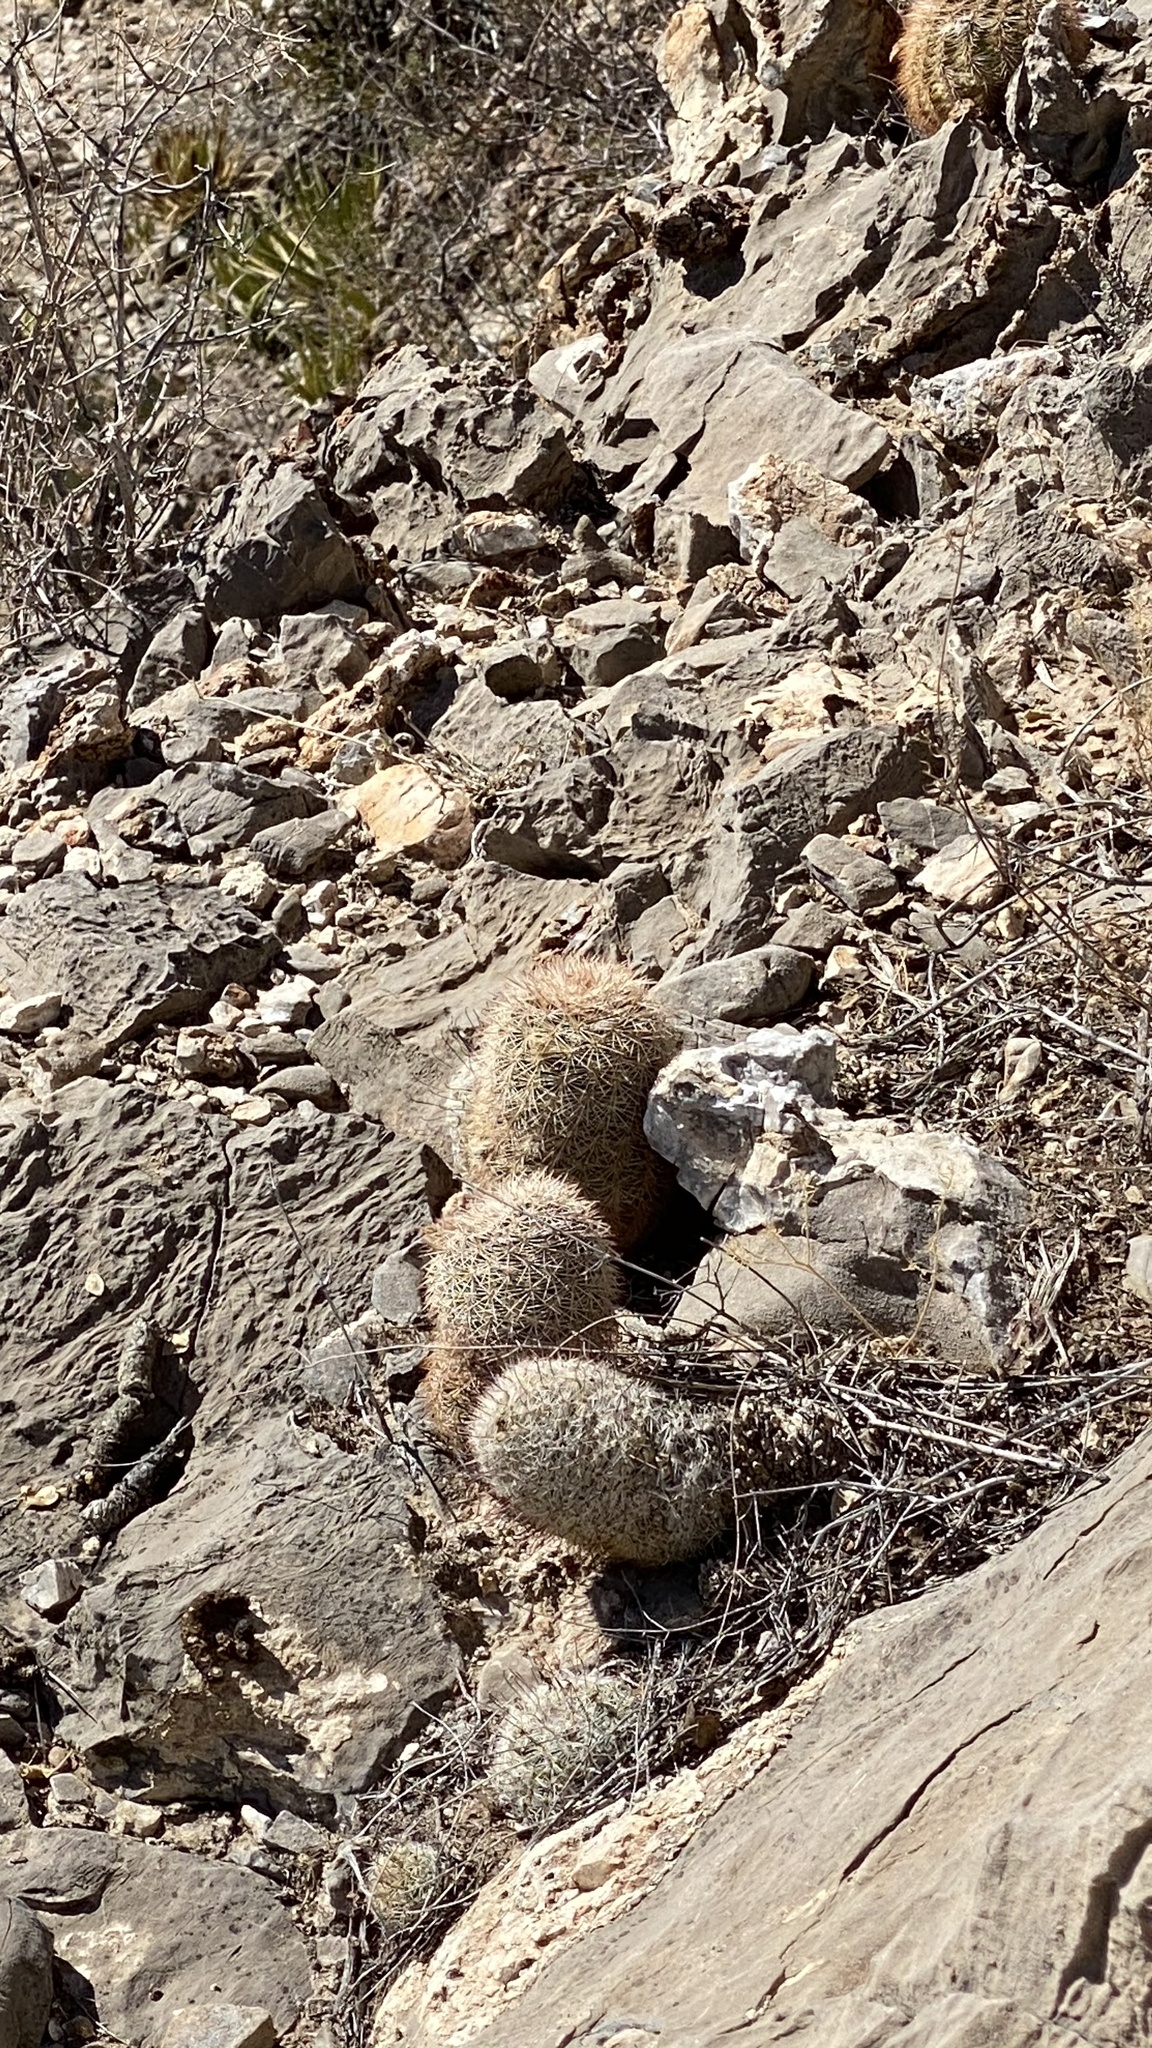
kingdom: Plantae
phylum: Tracheophyta
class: Magnoliopsida
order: Caryophyllales
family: Cactaceae
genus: Echinocereus
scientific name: Echinocereus dasyacanthus
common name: Spiny hedgehog cactus
